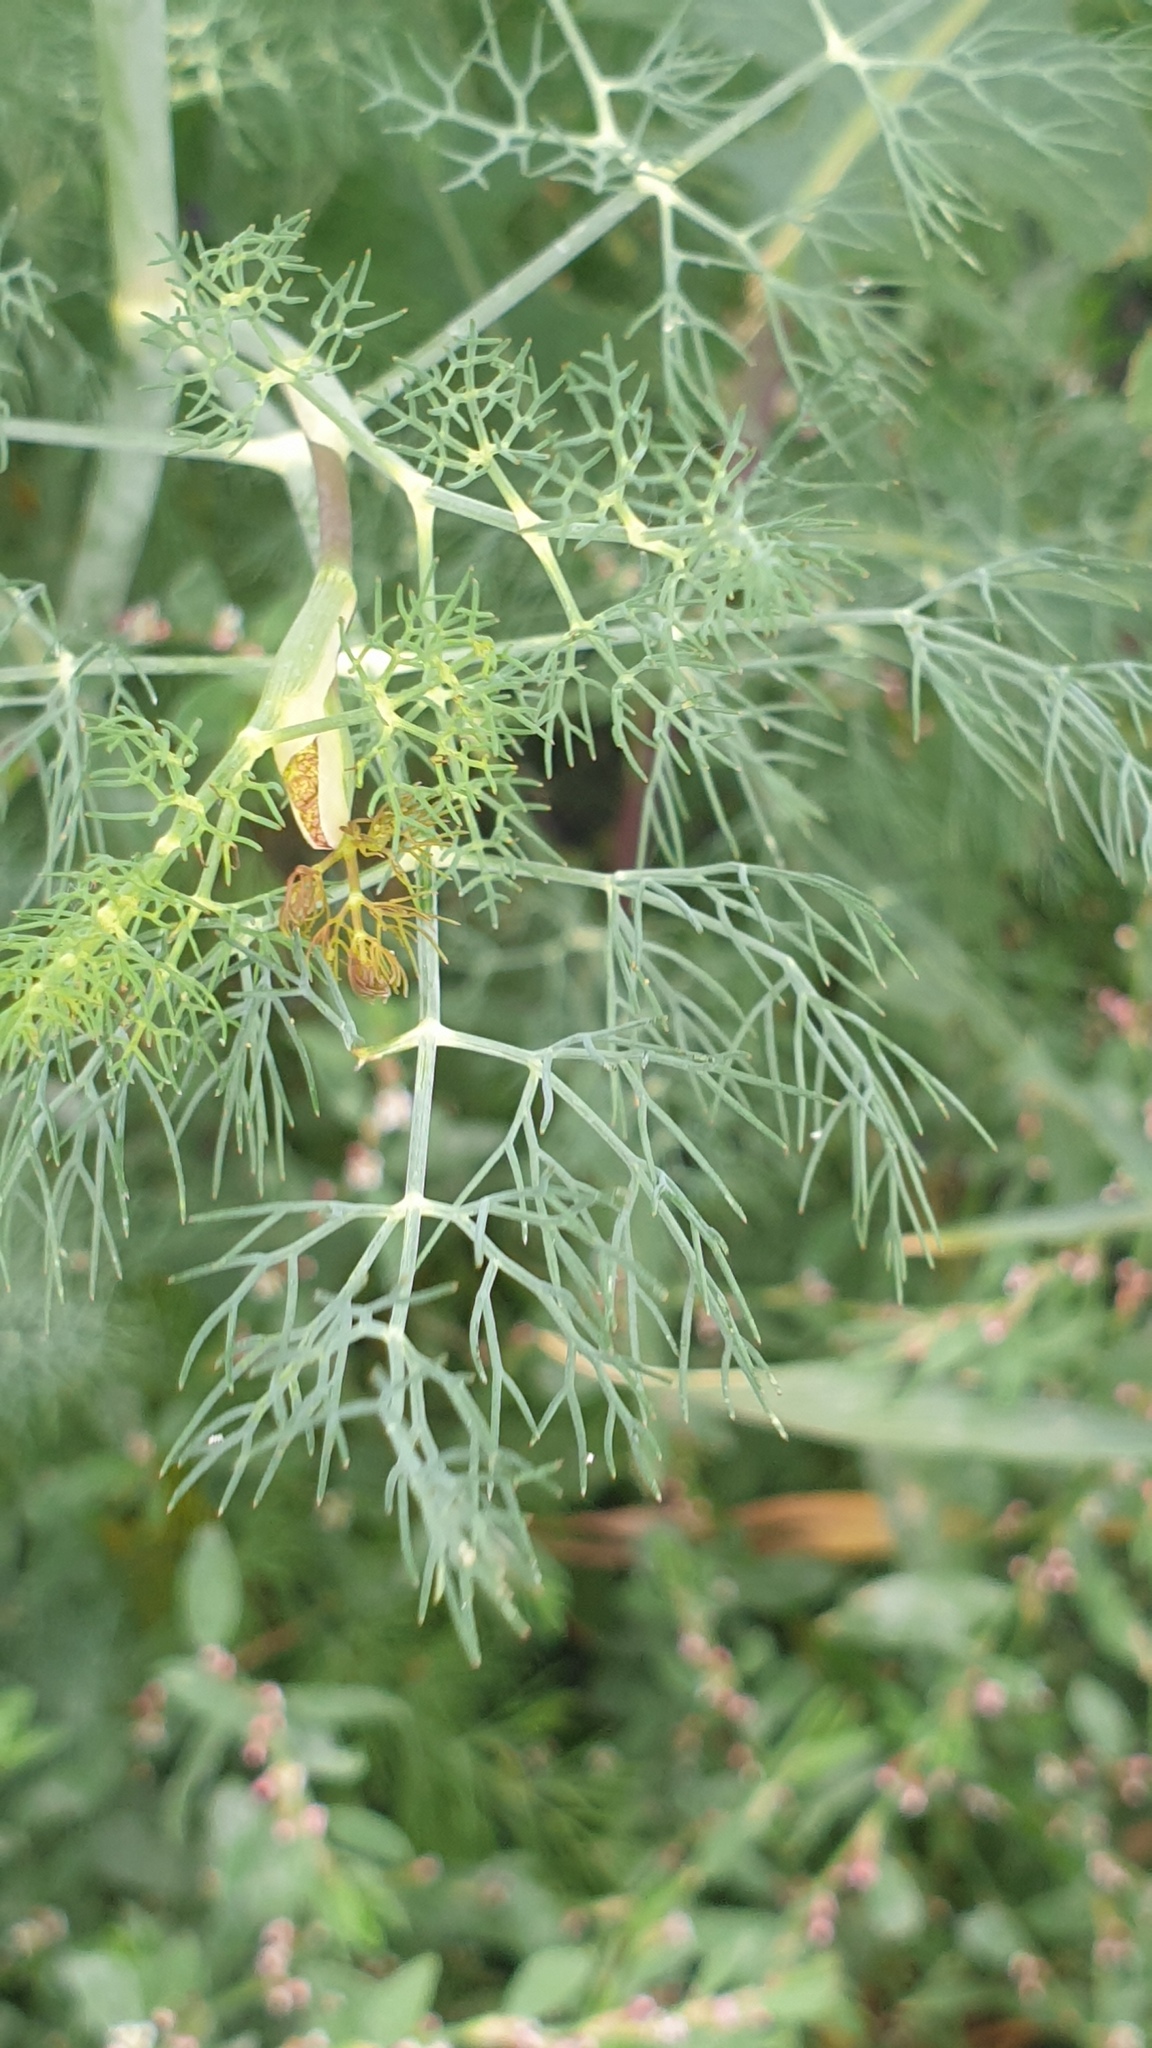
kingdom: Plantae
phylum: Tracheophyta
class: Magnoliopsida
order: Apiales
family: Apiaceae
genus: Anethum
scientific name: Anethum graveolens
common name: Dill
